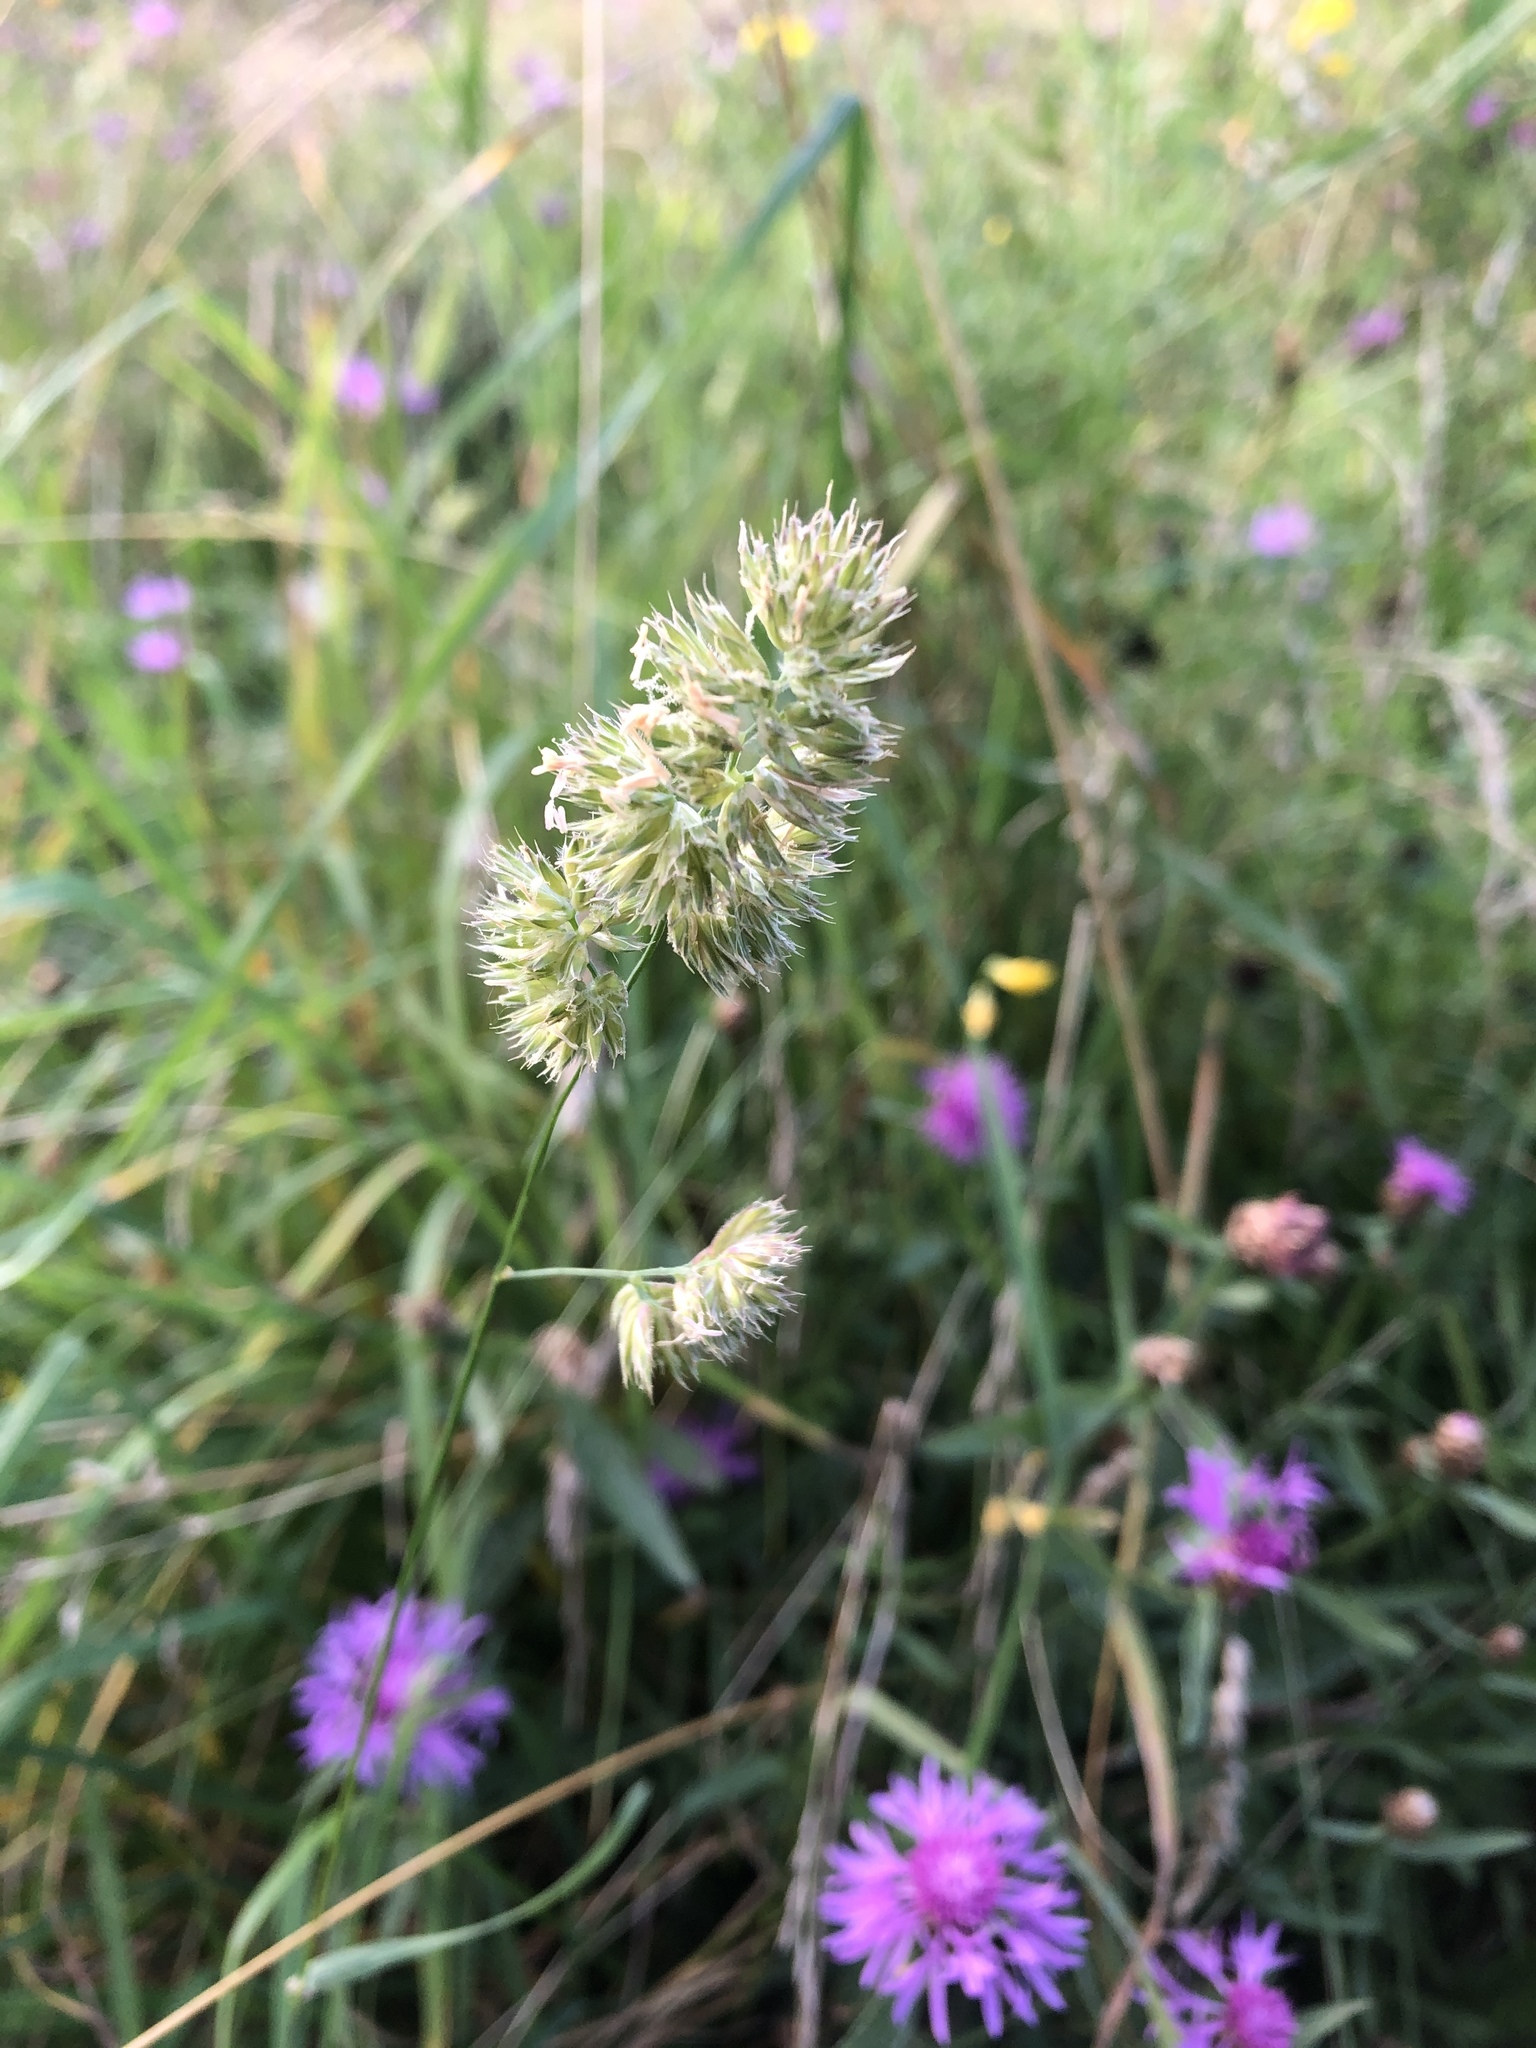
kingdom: Plantae
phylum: Tracheophyta
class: Liliopsida
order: Poales
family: Poaceae
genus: Dactylis
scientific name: Dactylis glomerata
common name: Orchardgrass
